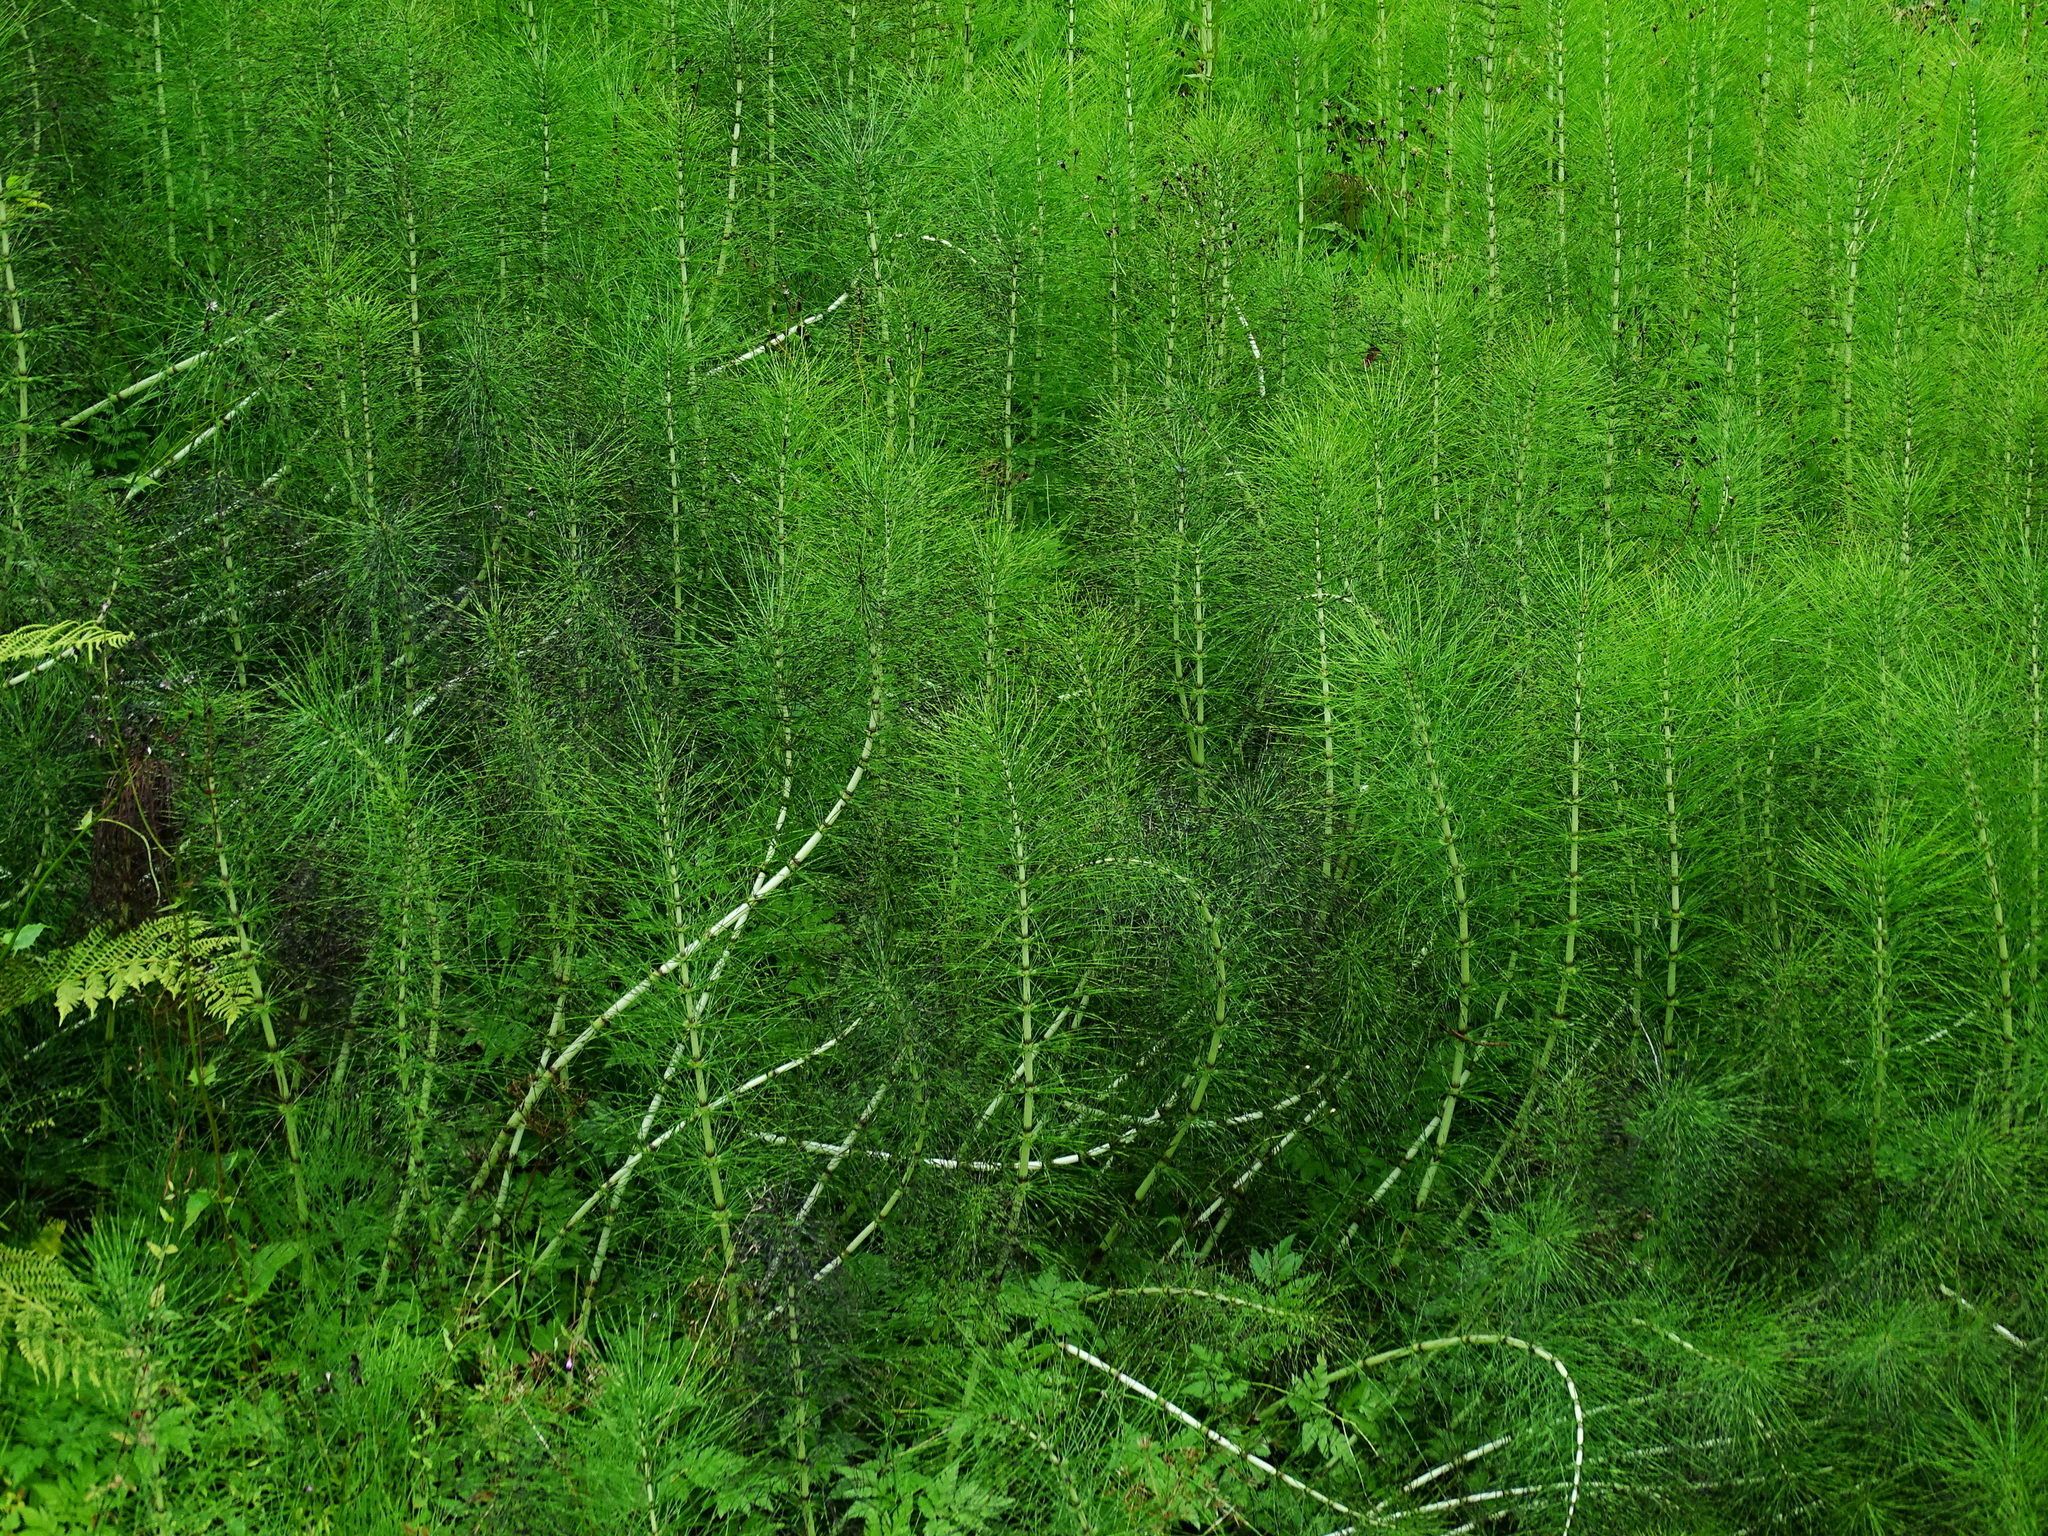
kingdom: Plantae
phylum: Tracheophyta
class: Polypodiopsida
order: Equisetales
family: Equisetaceae
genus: Equisetum
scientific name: Equisetum telmateia
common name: Great horsetail
